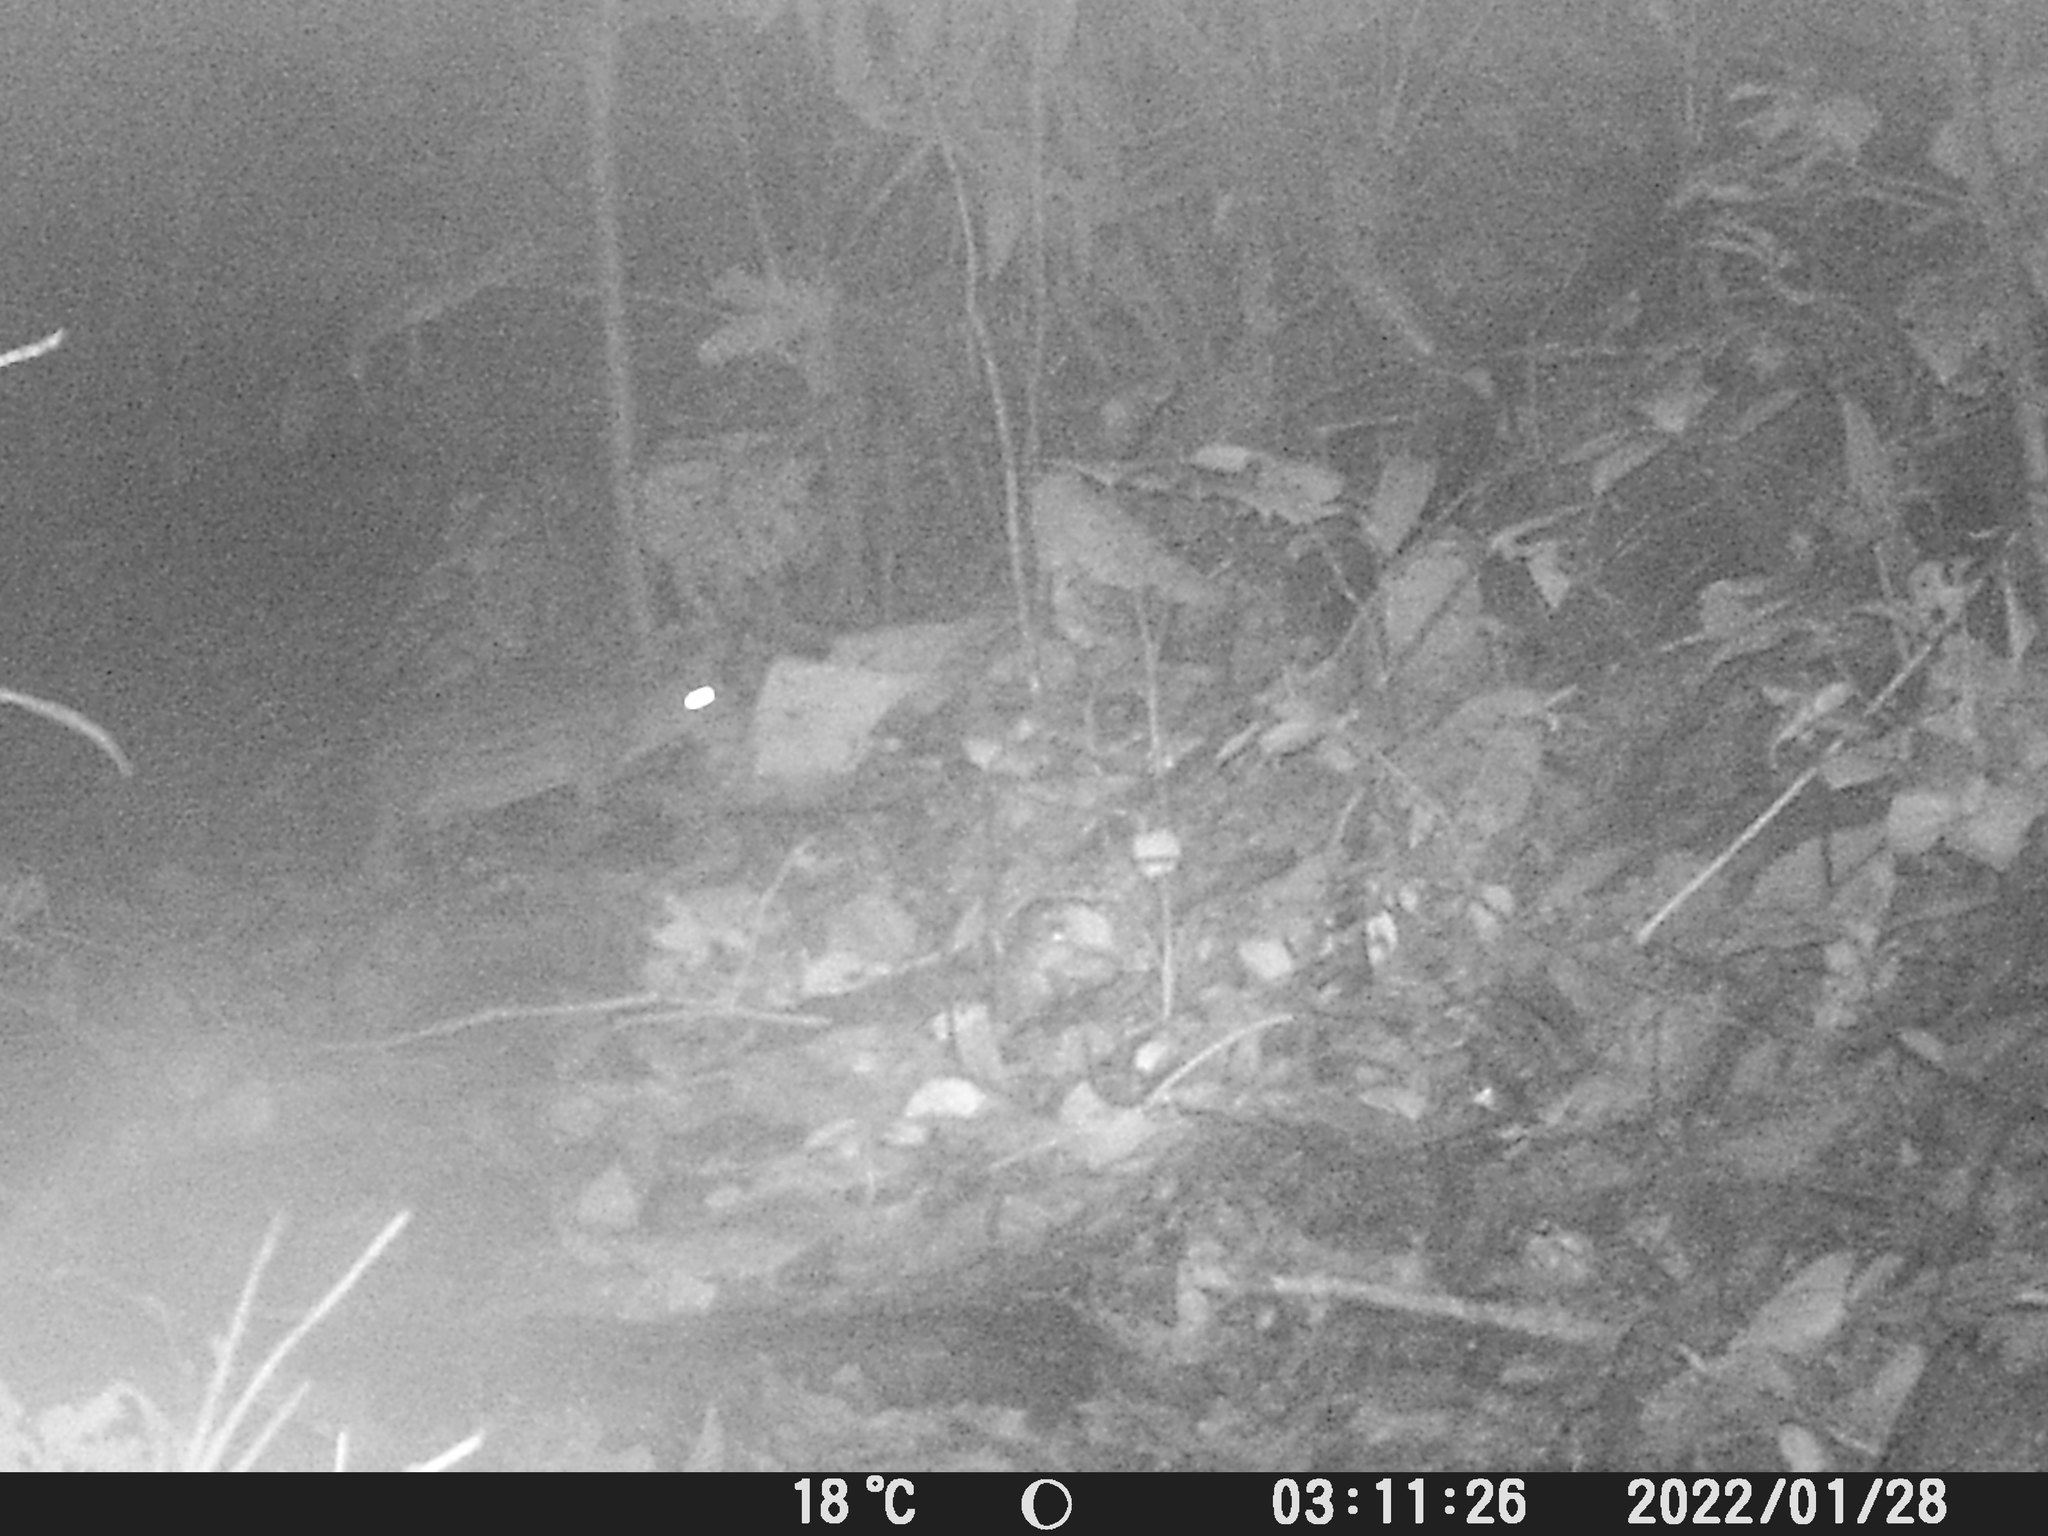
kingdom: Animalia
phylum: Chordata
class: Mammalia
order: Rodentia
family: Cuniculidae
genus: Cuniculus
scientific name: Cuniculus paca
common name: Lowland paca
